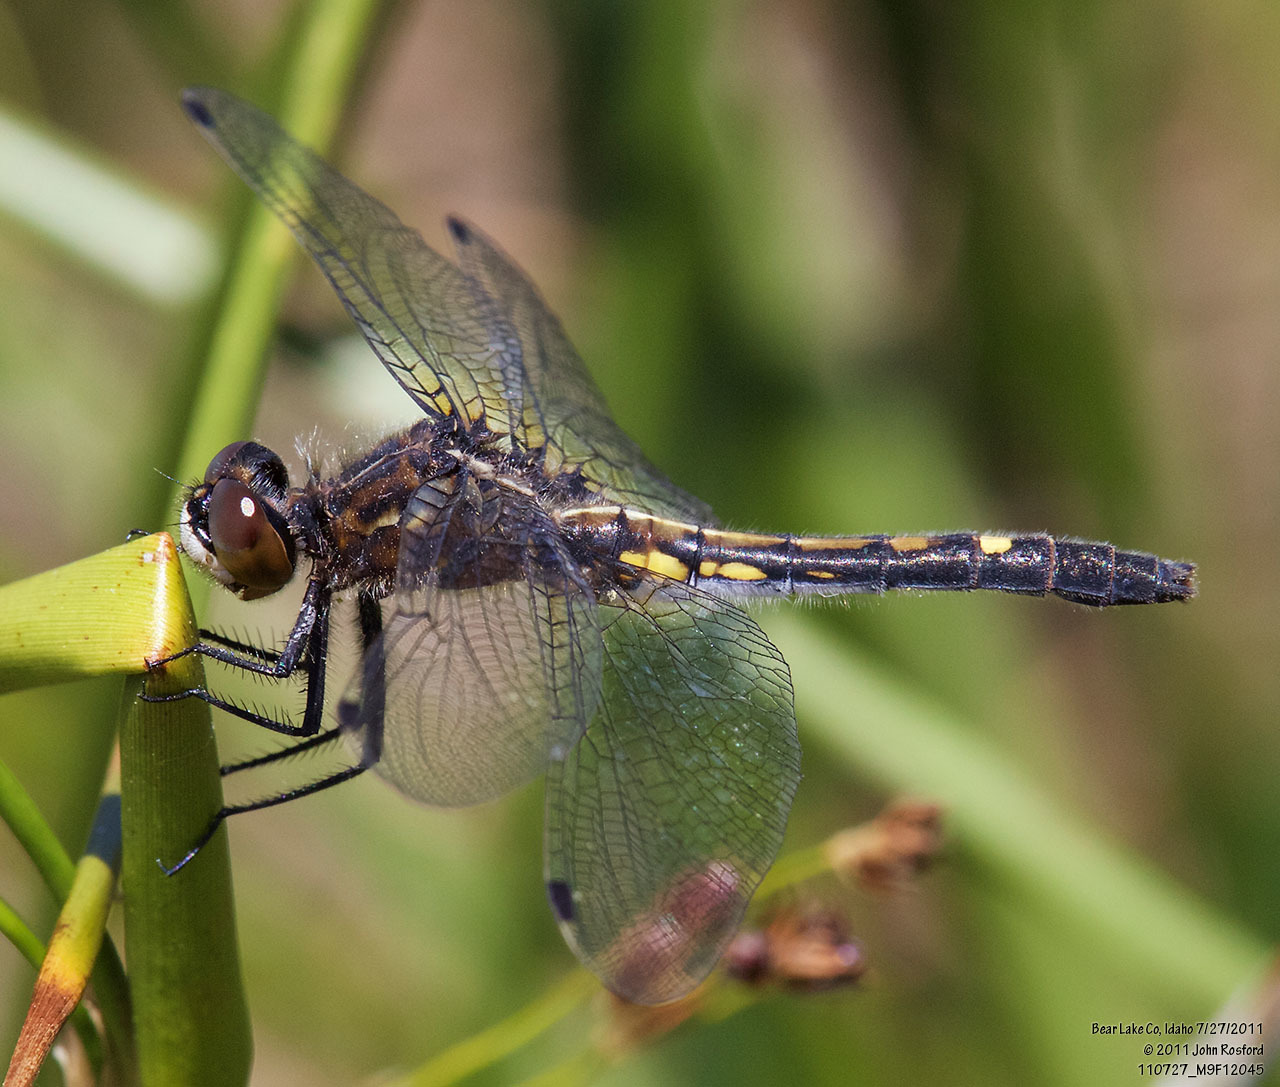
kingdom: Animalia
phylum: Arthropoda
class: Insecta
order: Odonata
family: Libellulidae
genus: Leucorrhinia
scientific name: Leucorrhinia intacta
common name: Dot-tailed whiteface
